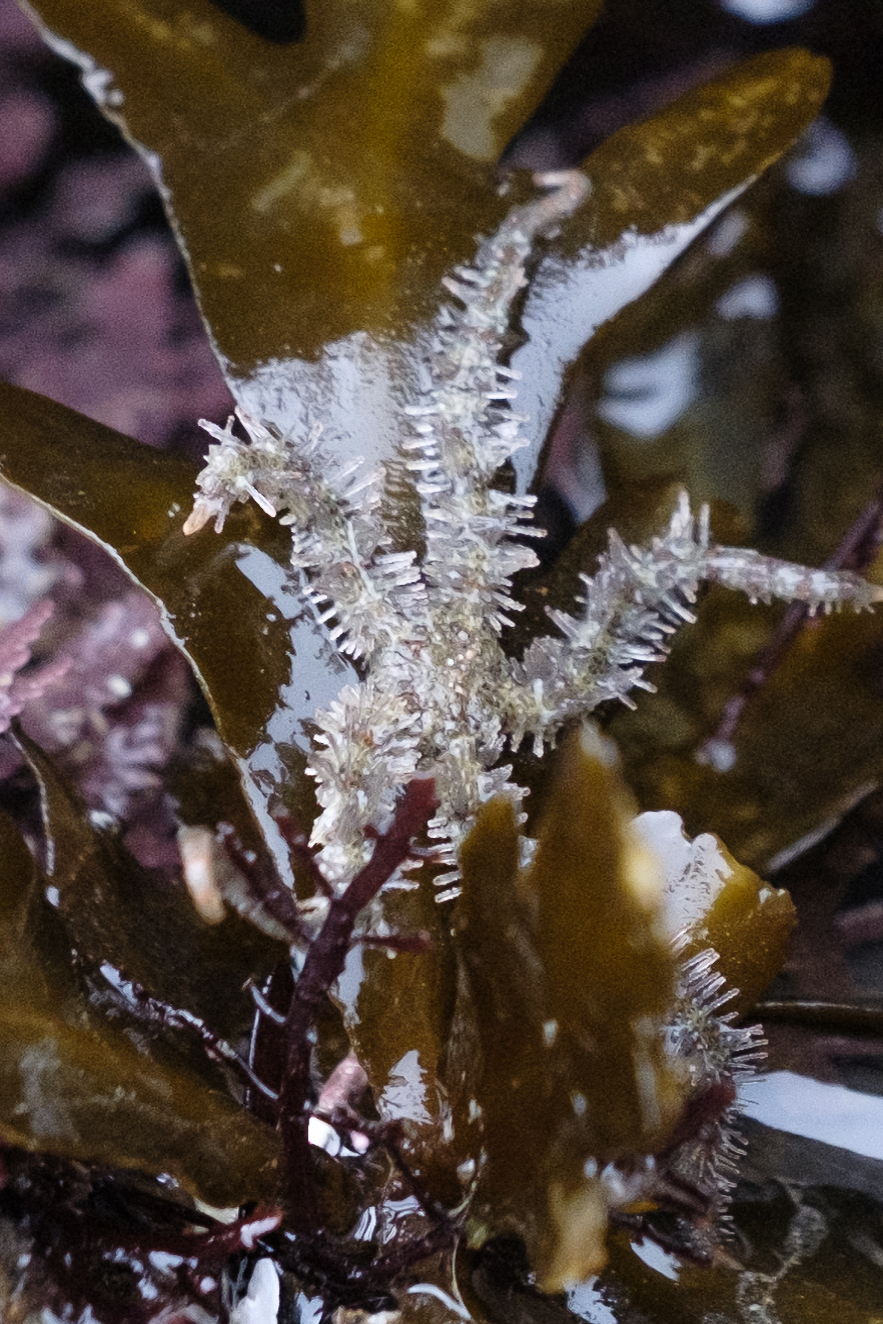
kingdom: Animalia
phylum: Echinodermata
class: Ophiuroidea
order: Amphilepidida
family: Ophiotrichidae
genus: Ophiothrix
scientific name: Ophiothrix spiculata
